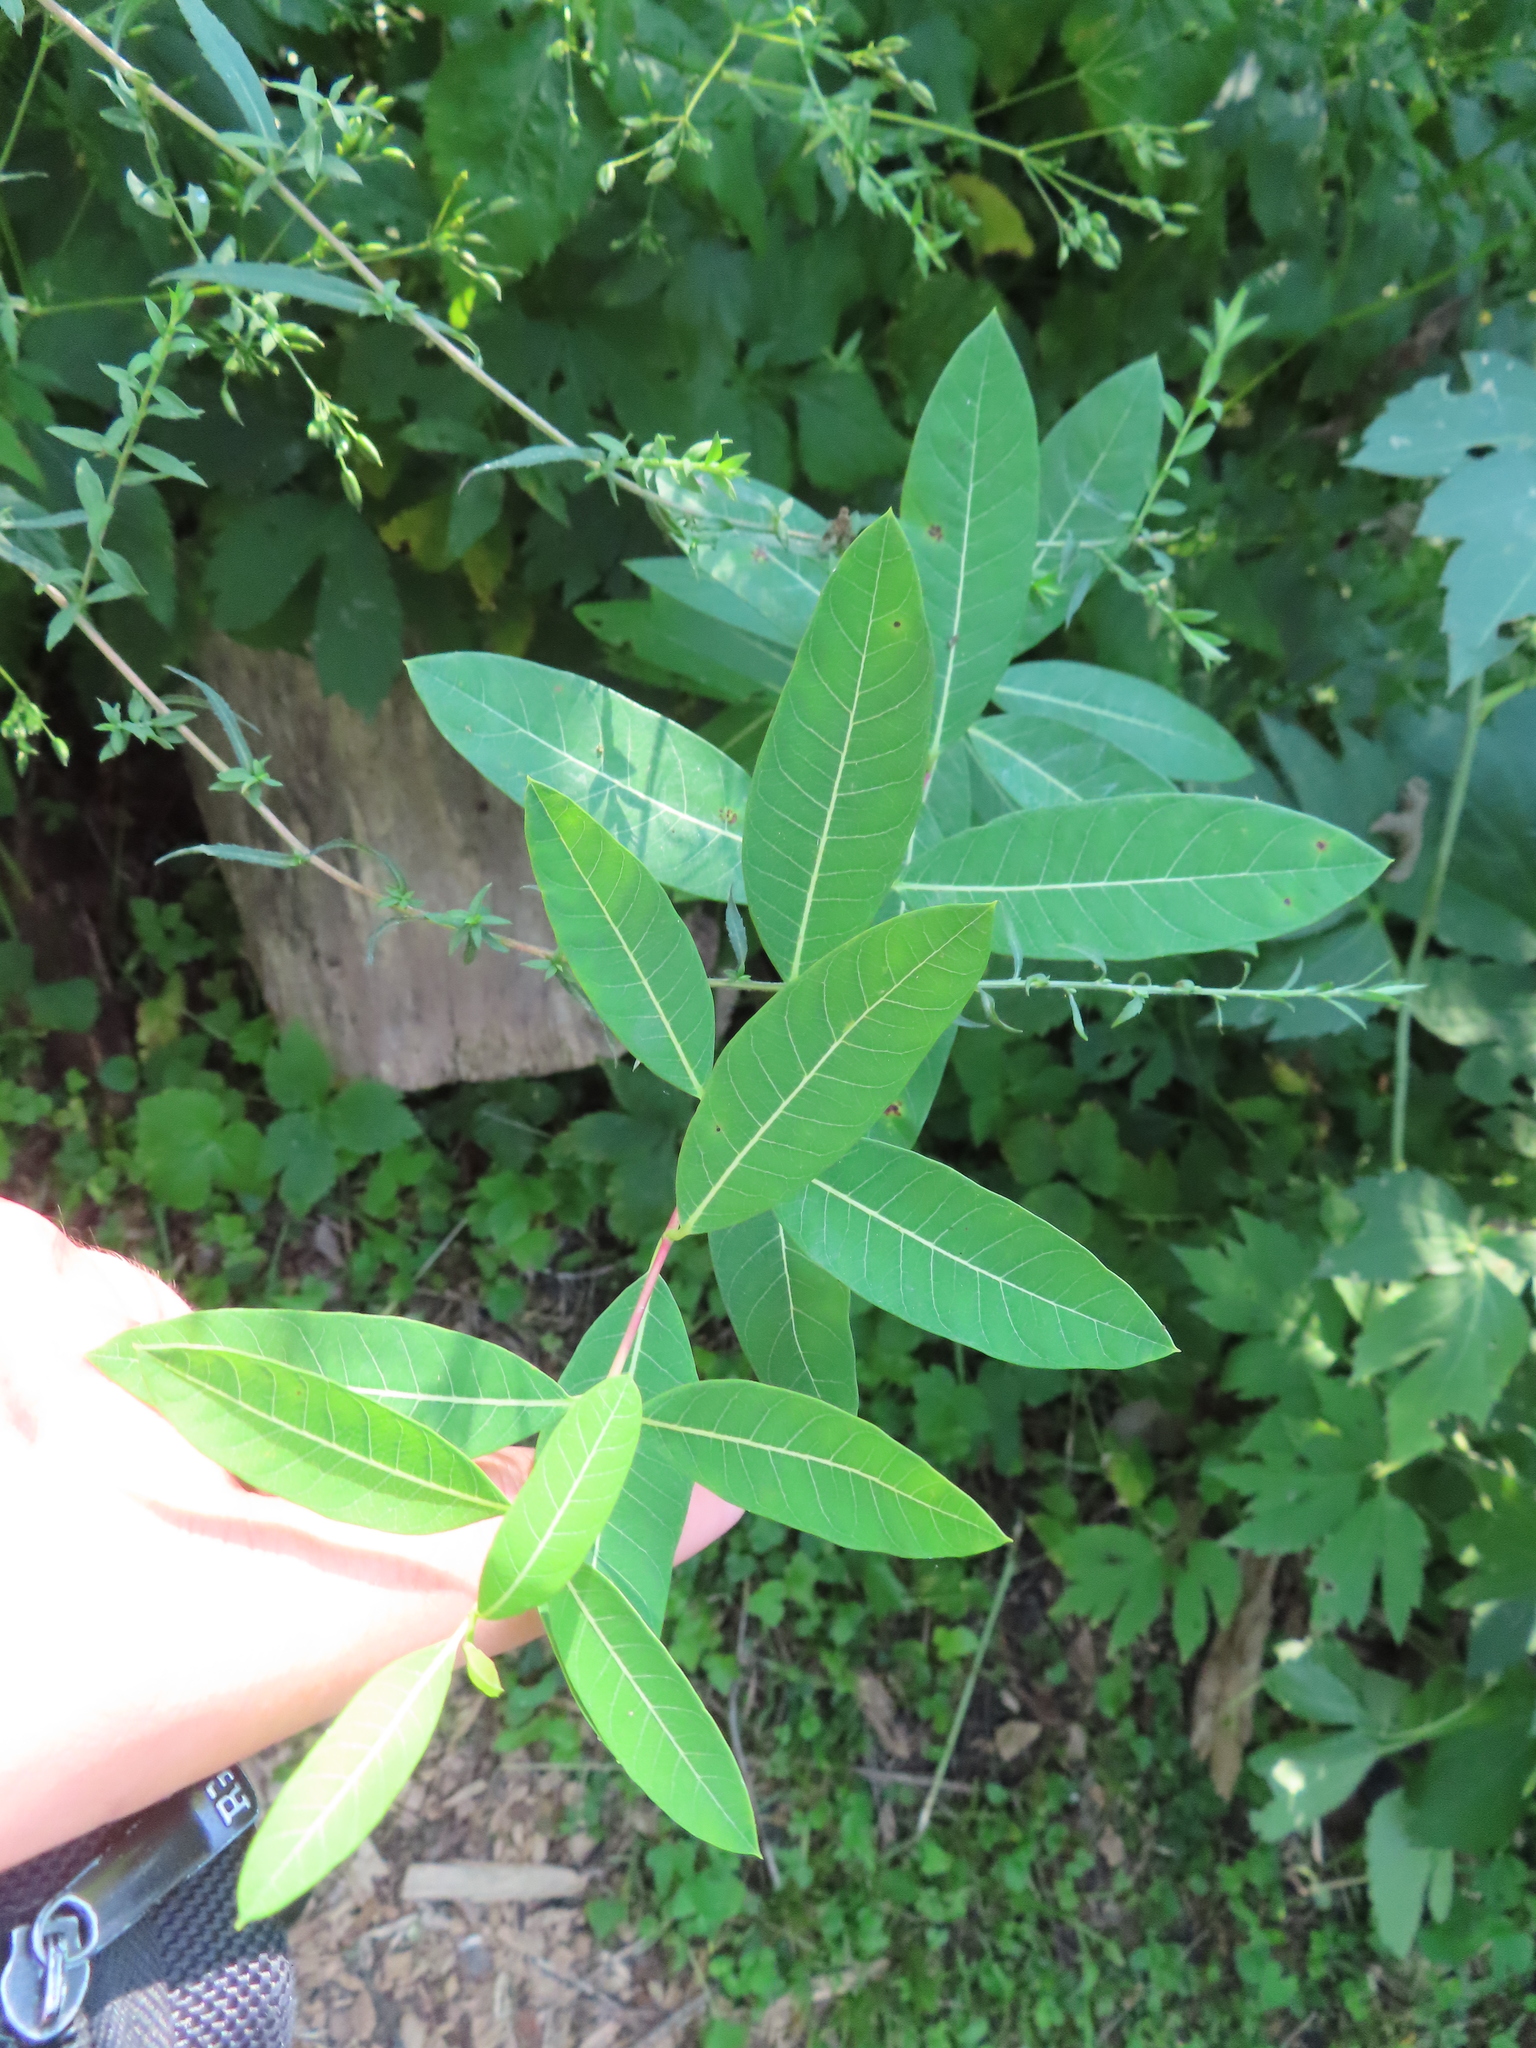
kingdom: Plantae
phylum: Tracheophyta
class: Magnoliopsida
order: Gentianales
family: Apocynaceae
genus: Apocynum
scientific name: Apocynum cannabinum
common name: Hemp dogbane
